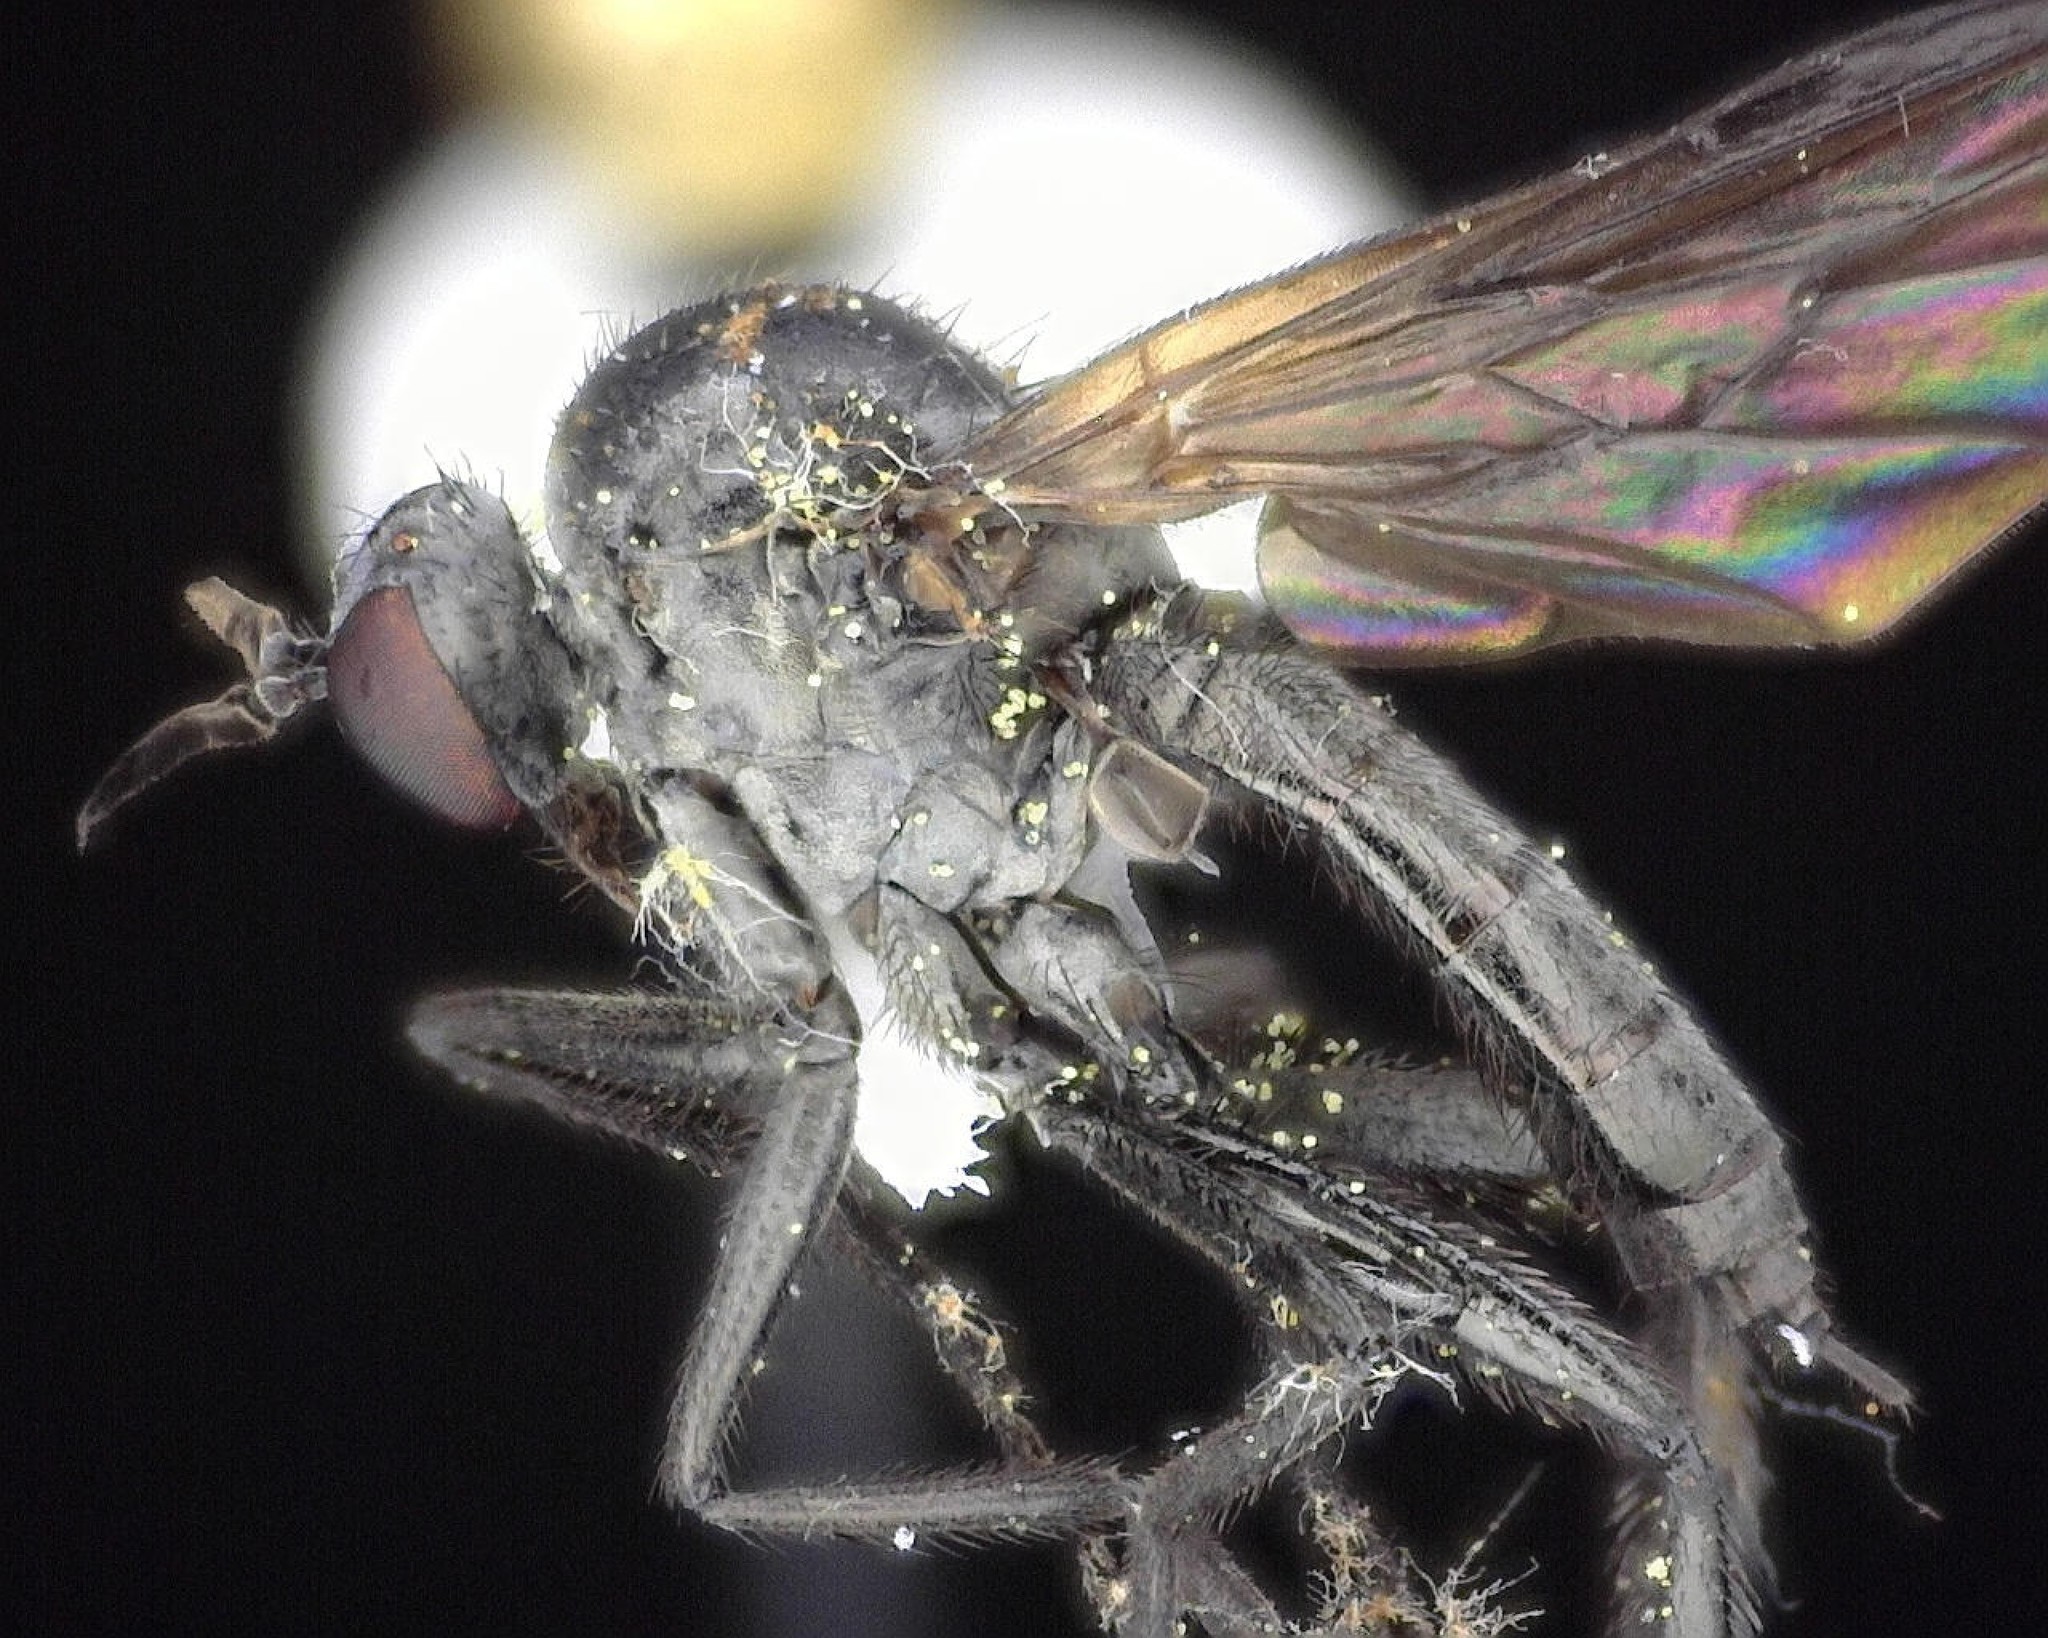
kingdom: Animalia
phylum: Arthropoda
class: Insecta
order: Diptera
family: Empididae
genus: Rhamphomyia
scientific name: Rhamphomyia longicauda
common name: Long-tailed dance fly
